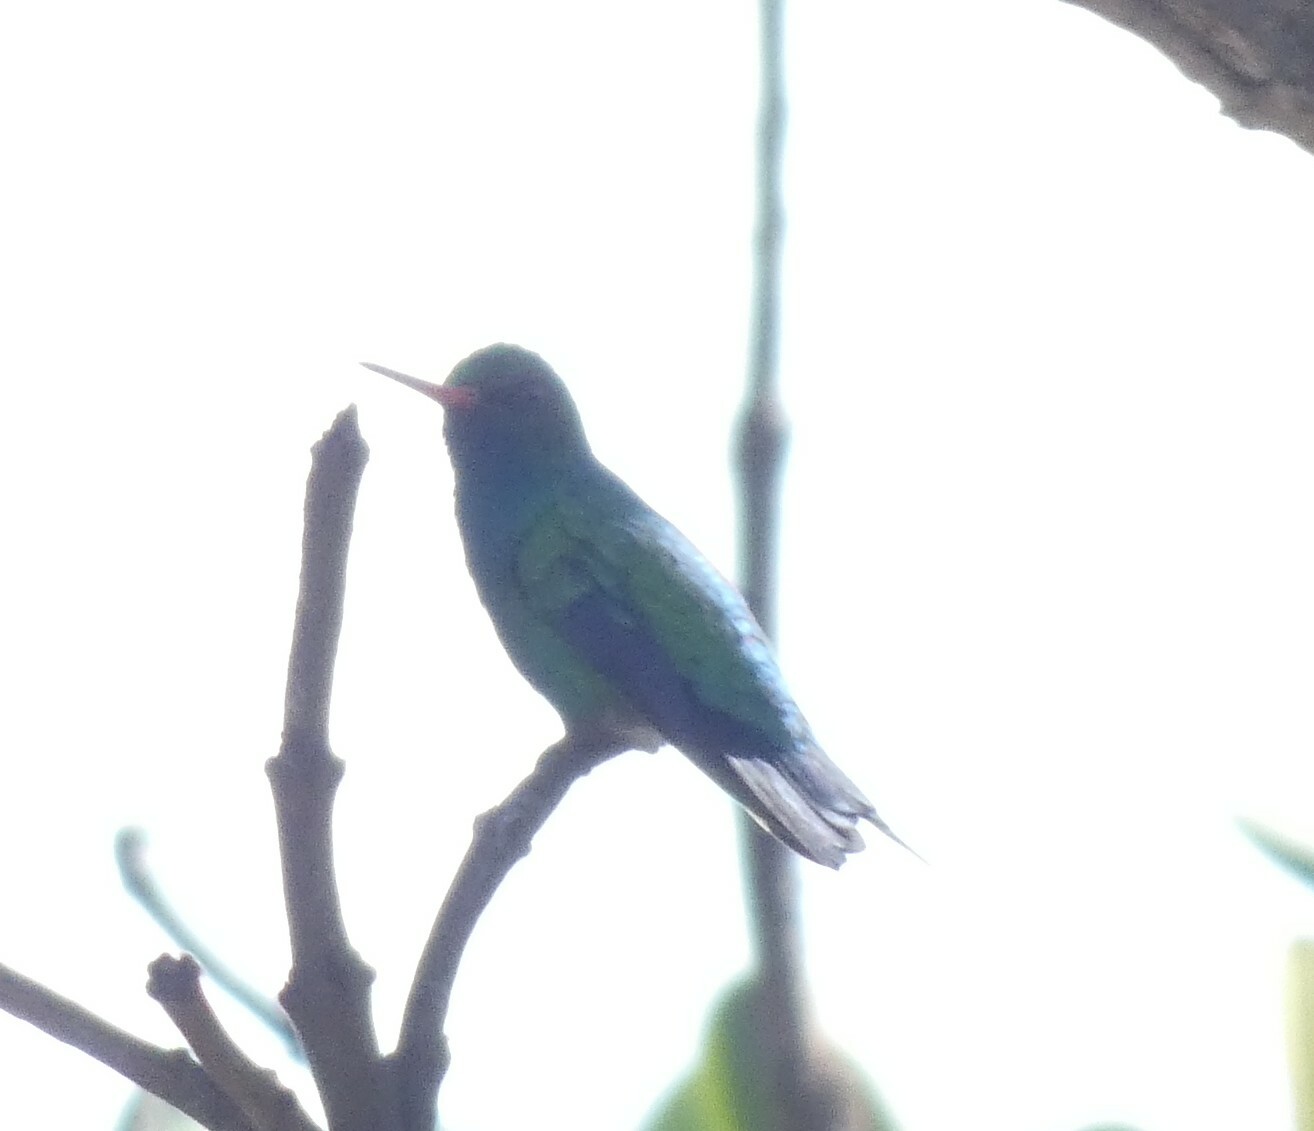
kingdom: Animalia
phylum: Chordata
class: Aves
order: Apodiformes
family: Trochilidae
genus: Chlorostilbon
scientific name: Chlorostilbon lucidus
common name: Glittering-bellied emerald
